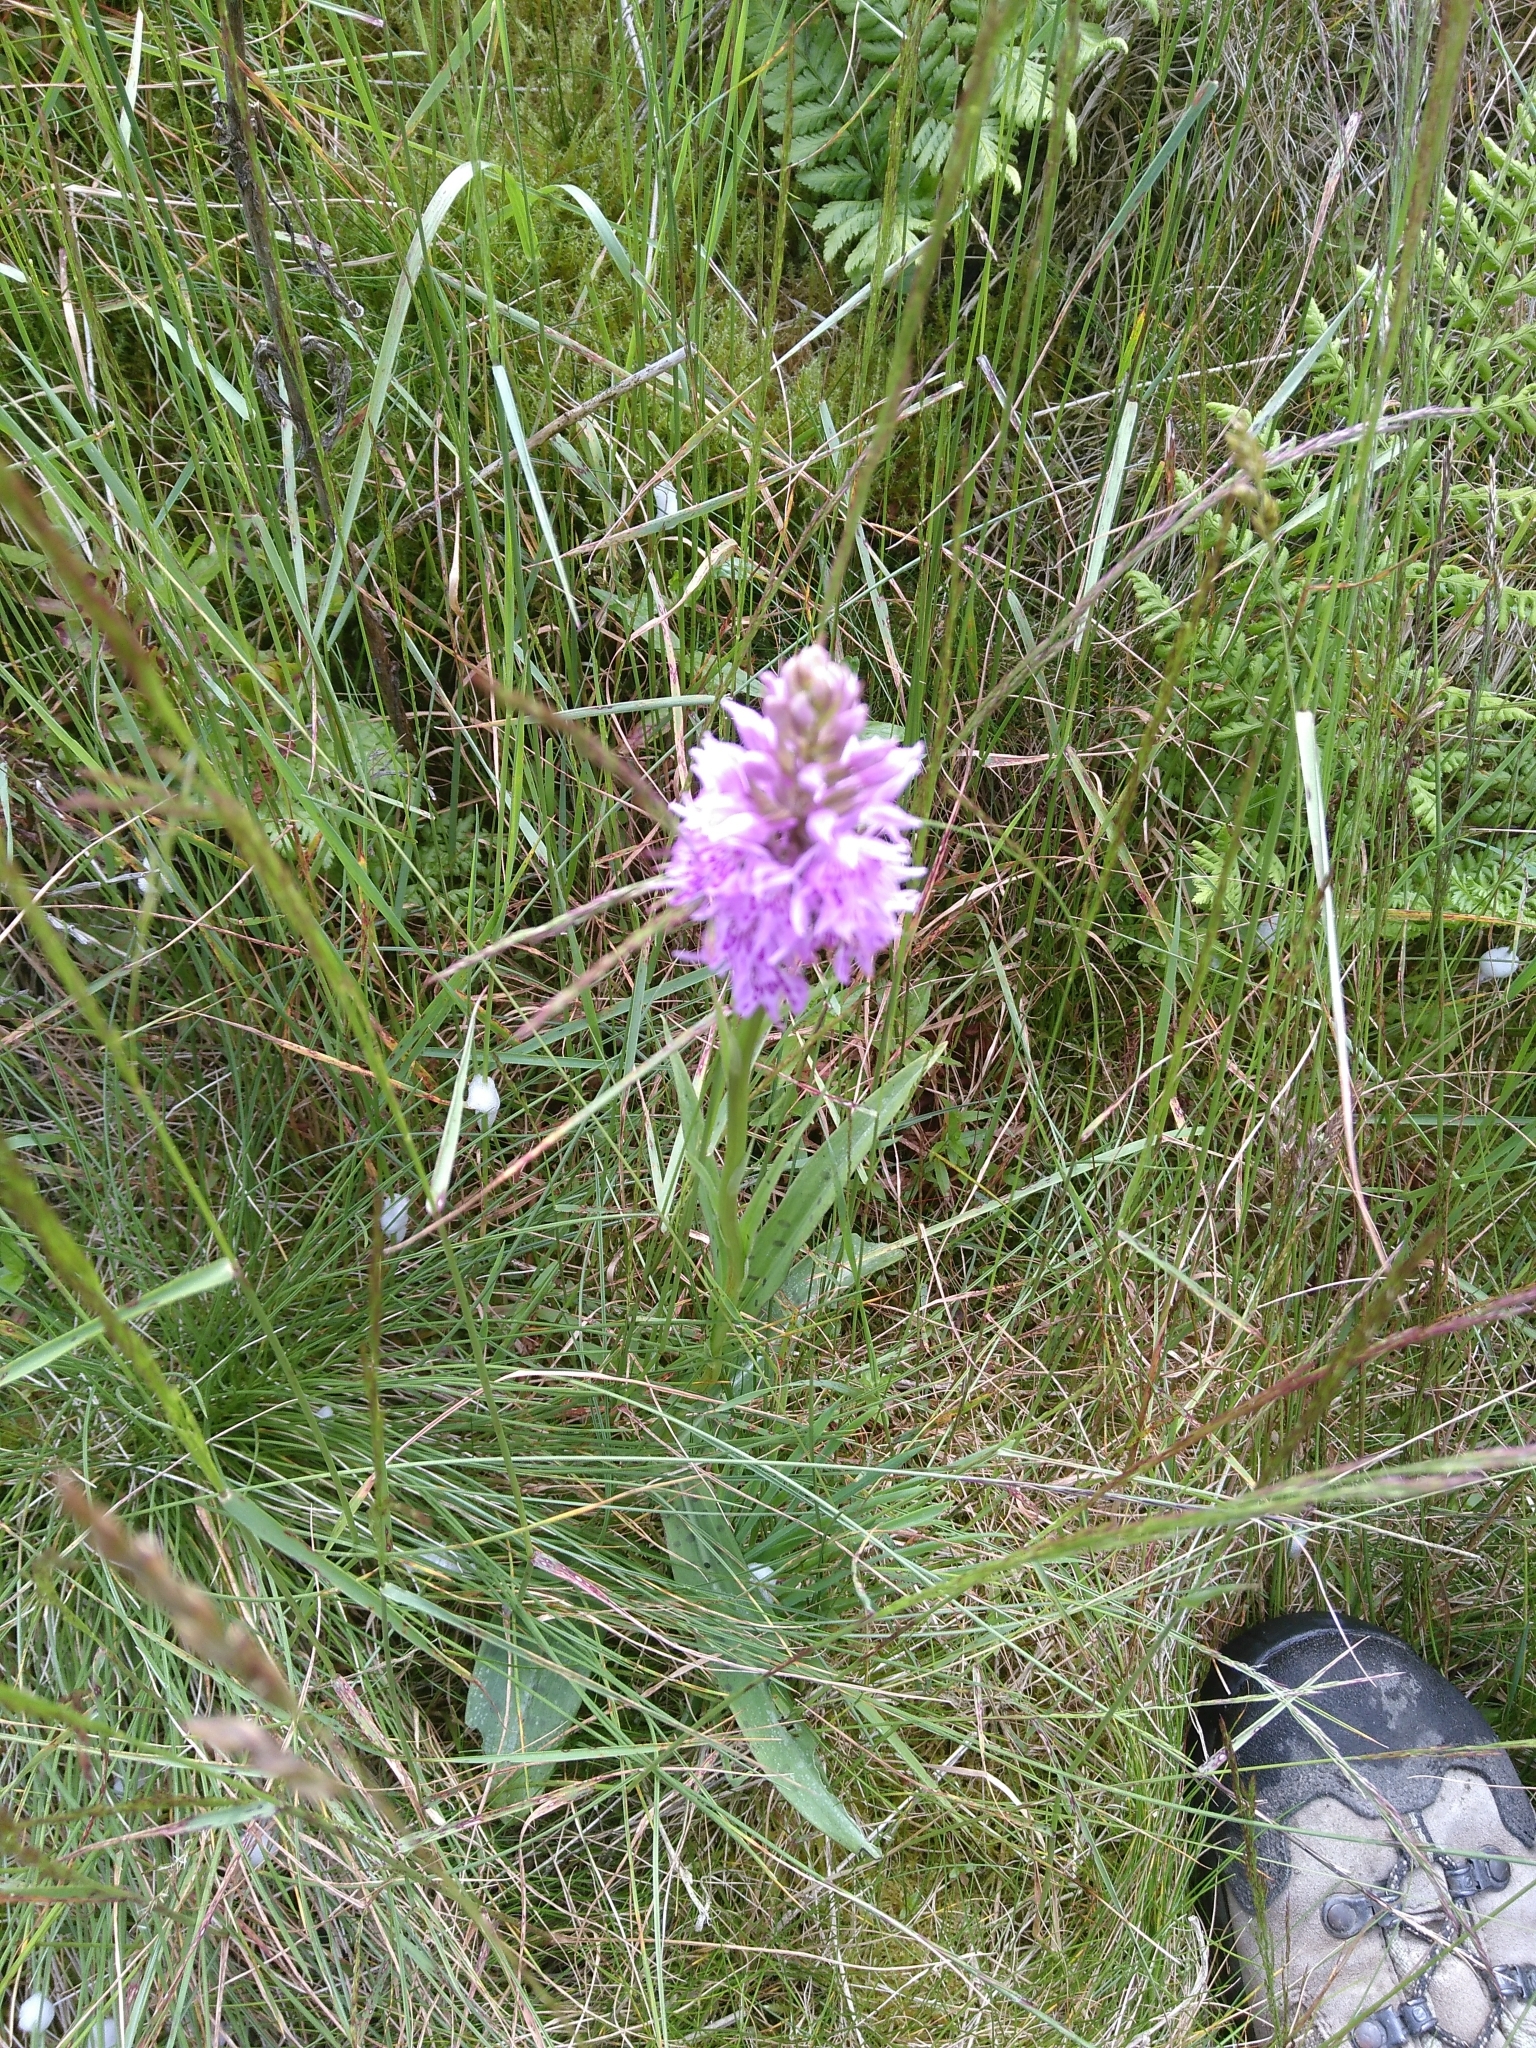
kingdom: Plantae
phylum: Tracheophyta
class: Liliopsida
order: Asparagales
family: Orchidaceae
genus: Dactylorhiza
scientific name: Dactylorhiza maculata
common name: Heath spotted-orchid
